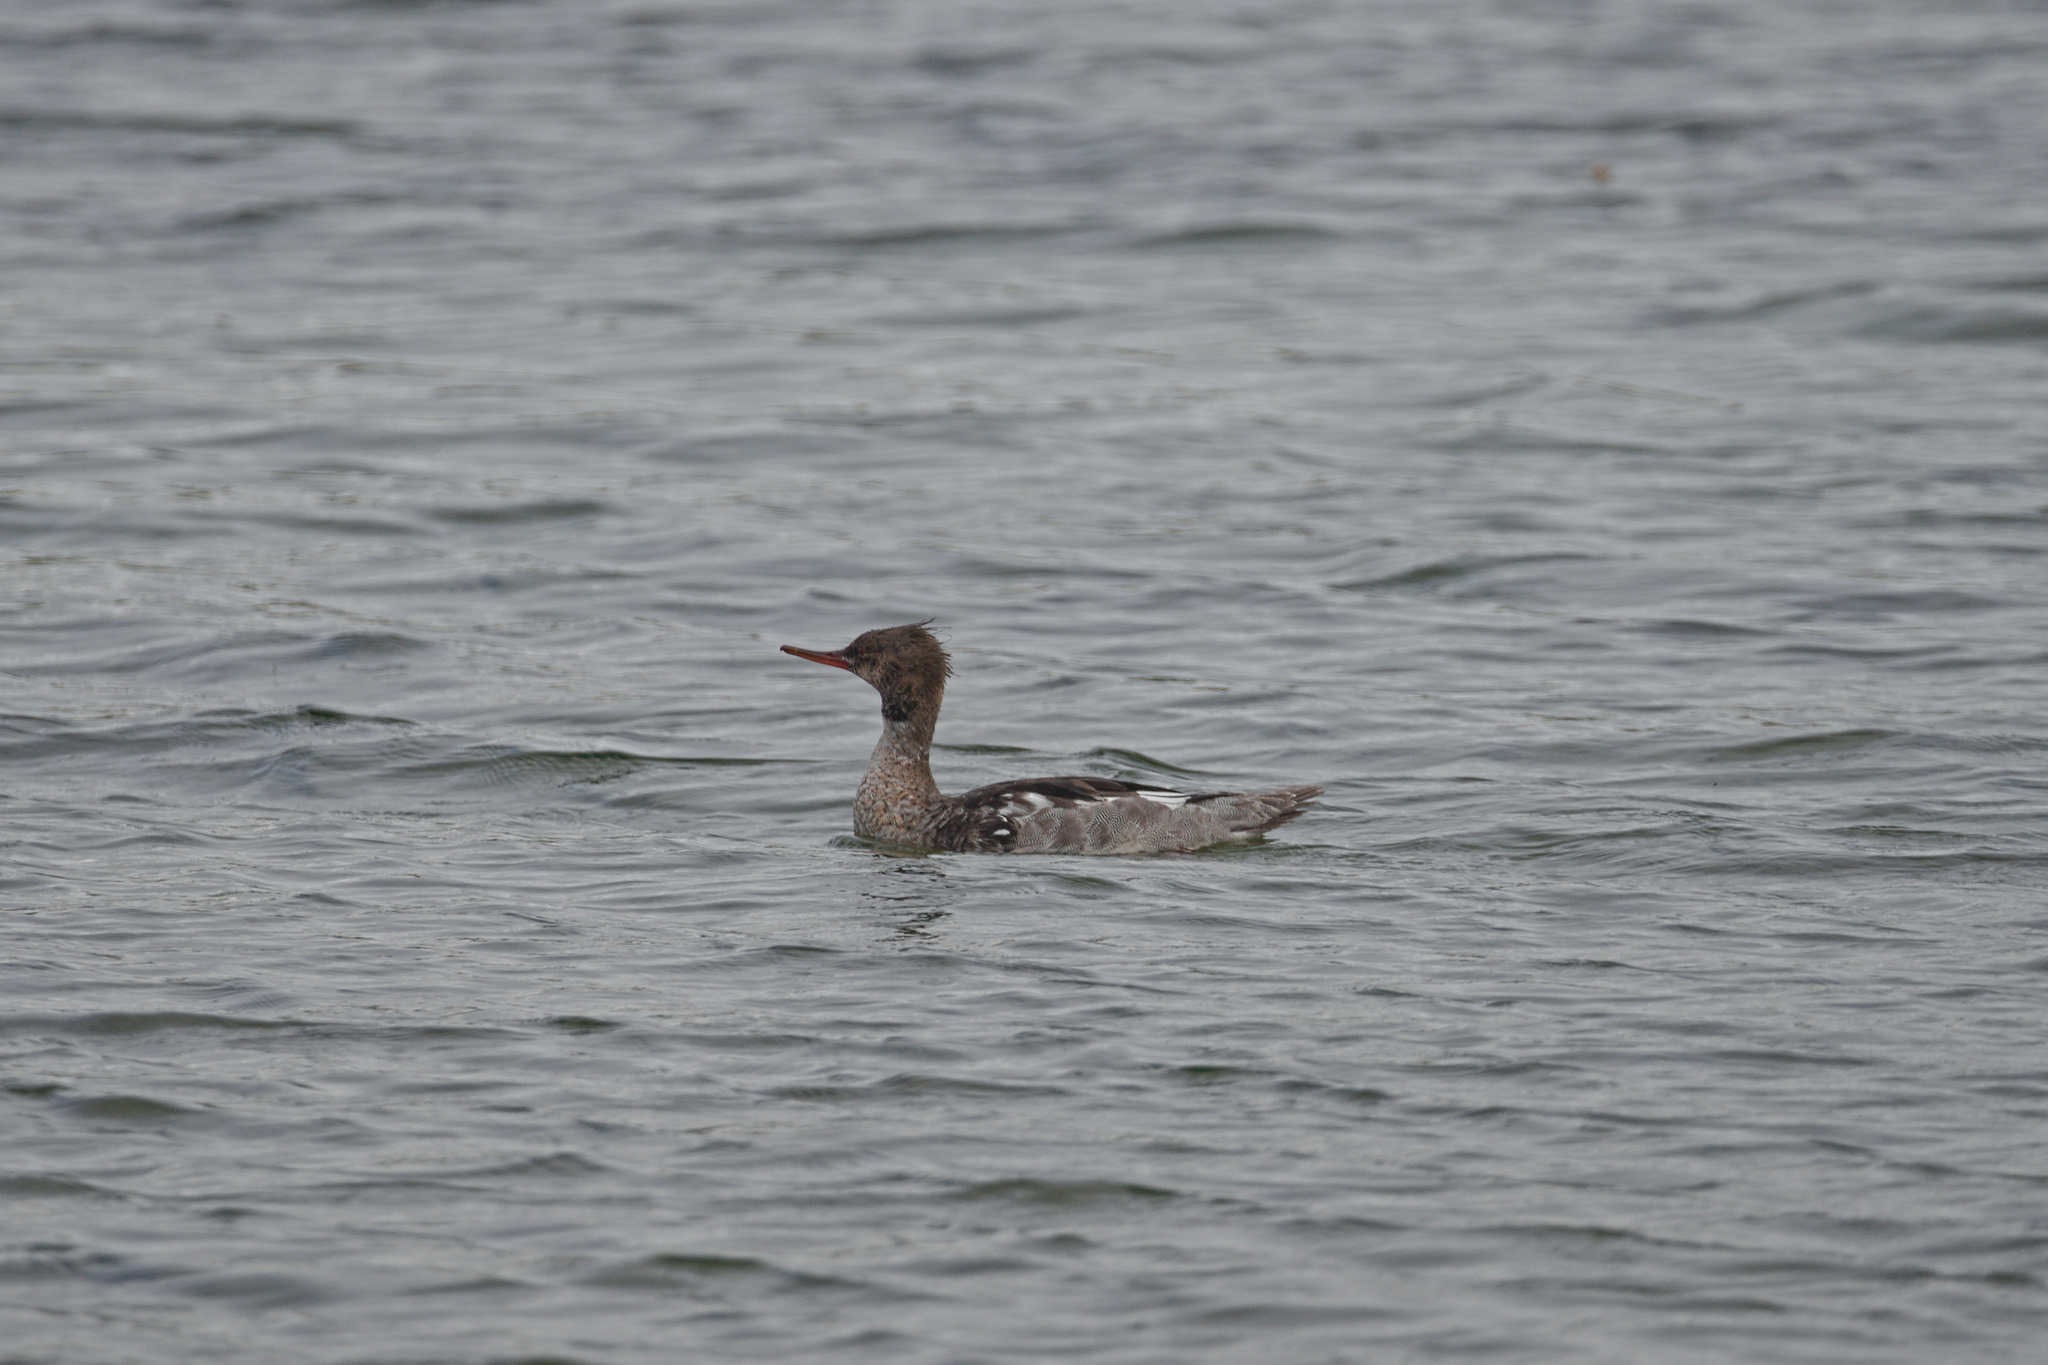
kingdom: Animalia
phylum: Chordata
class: Aves
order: Anseriformes
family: Anatidae
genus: Mergus
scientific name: Mergus serrator
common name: Red-breasted merganser
